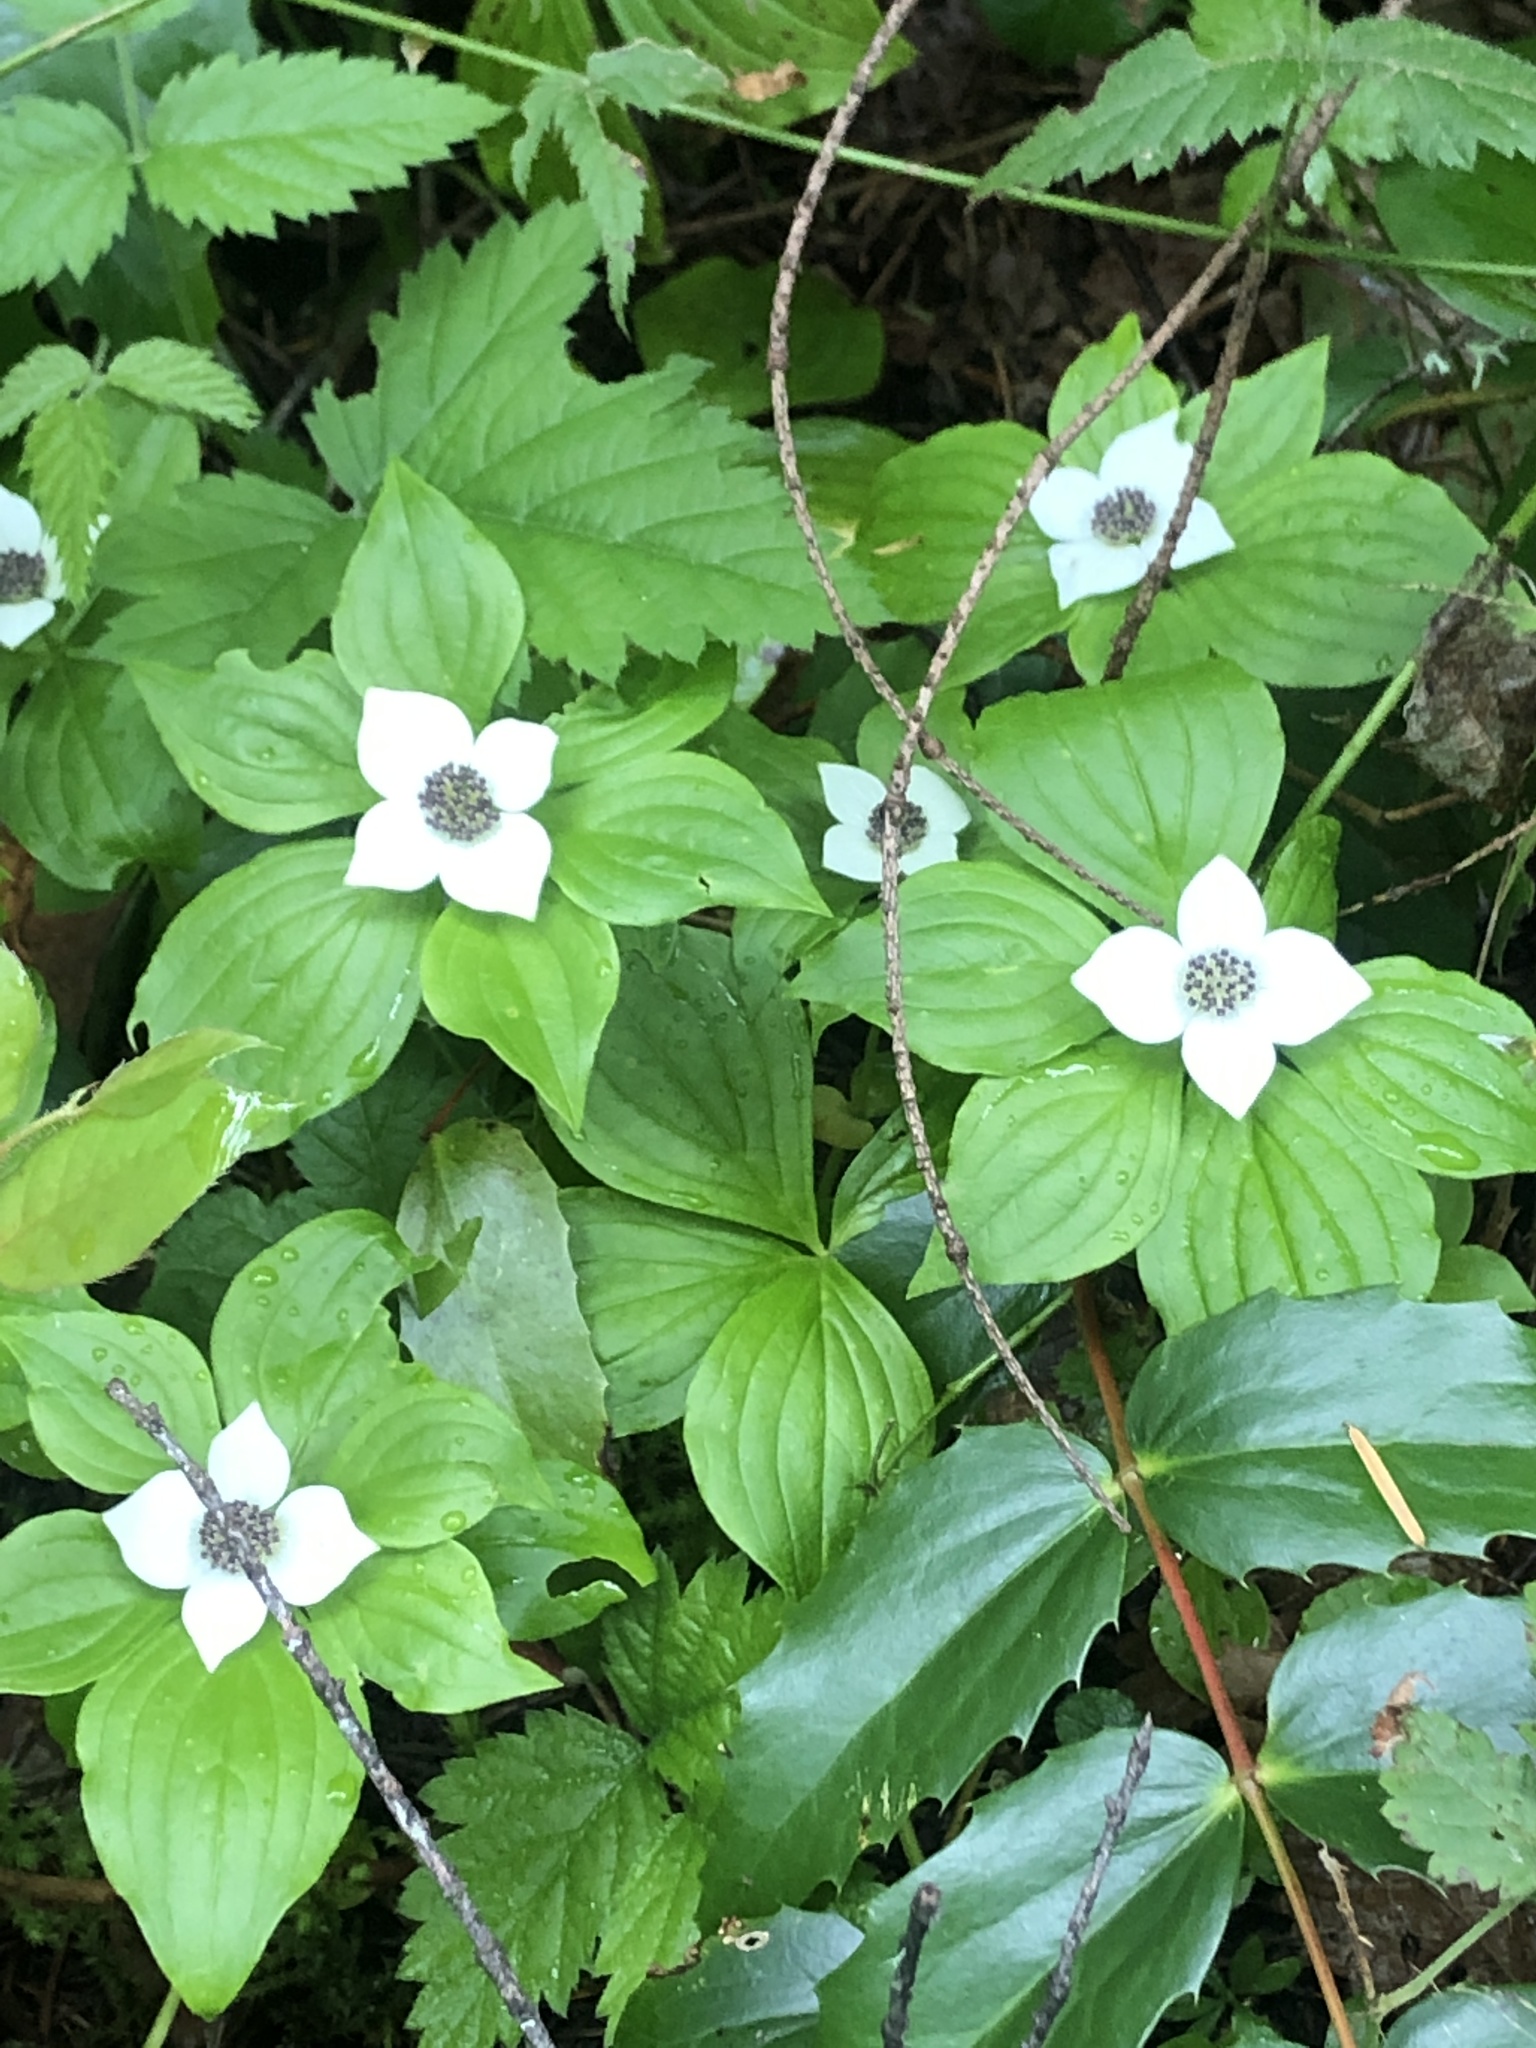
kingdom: Plantae
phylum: Tracheophyta
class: Magnoliopsida
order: Cornales
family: Cornaceae
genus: Cornus
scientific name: Cornus unalaschkensis
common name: Alaska bunchberry
